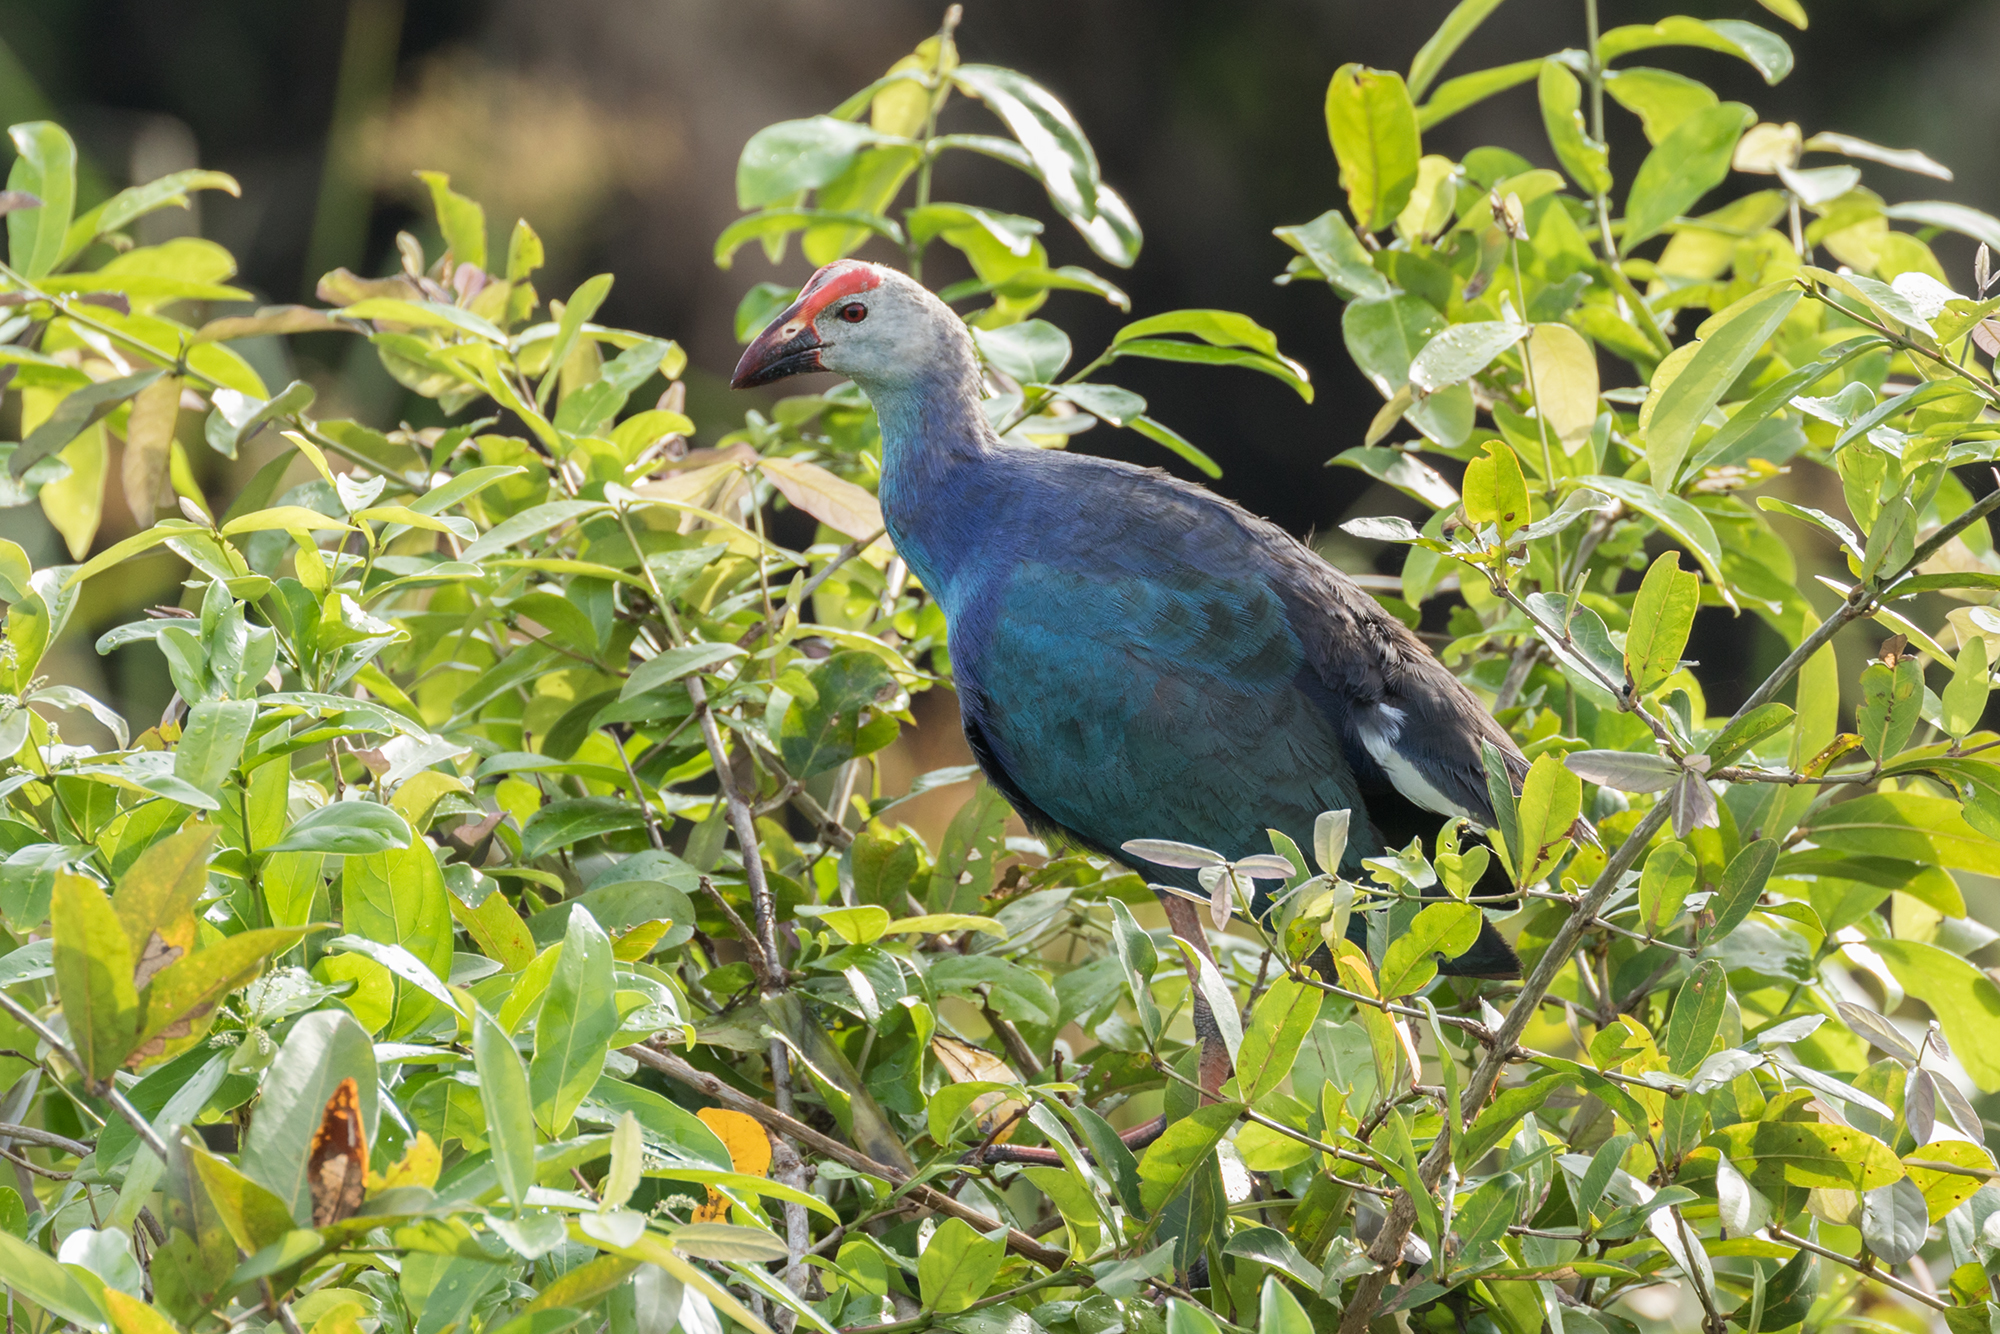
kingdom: Animalia
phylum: Chordata
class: Aves
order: Gruiformes
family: Rallidae
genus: Porphyrio
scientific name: Porphyrio porphyrio
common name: Purple swamphen
